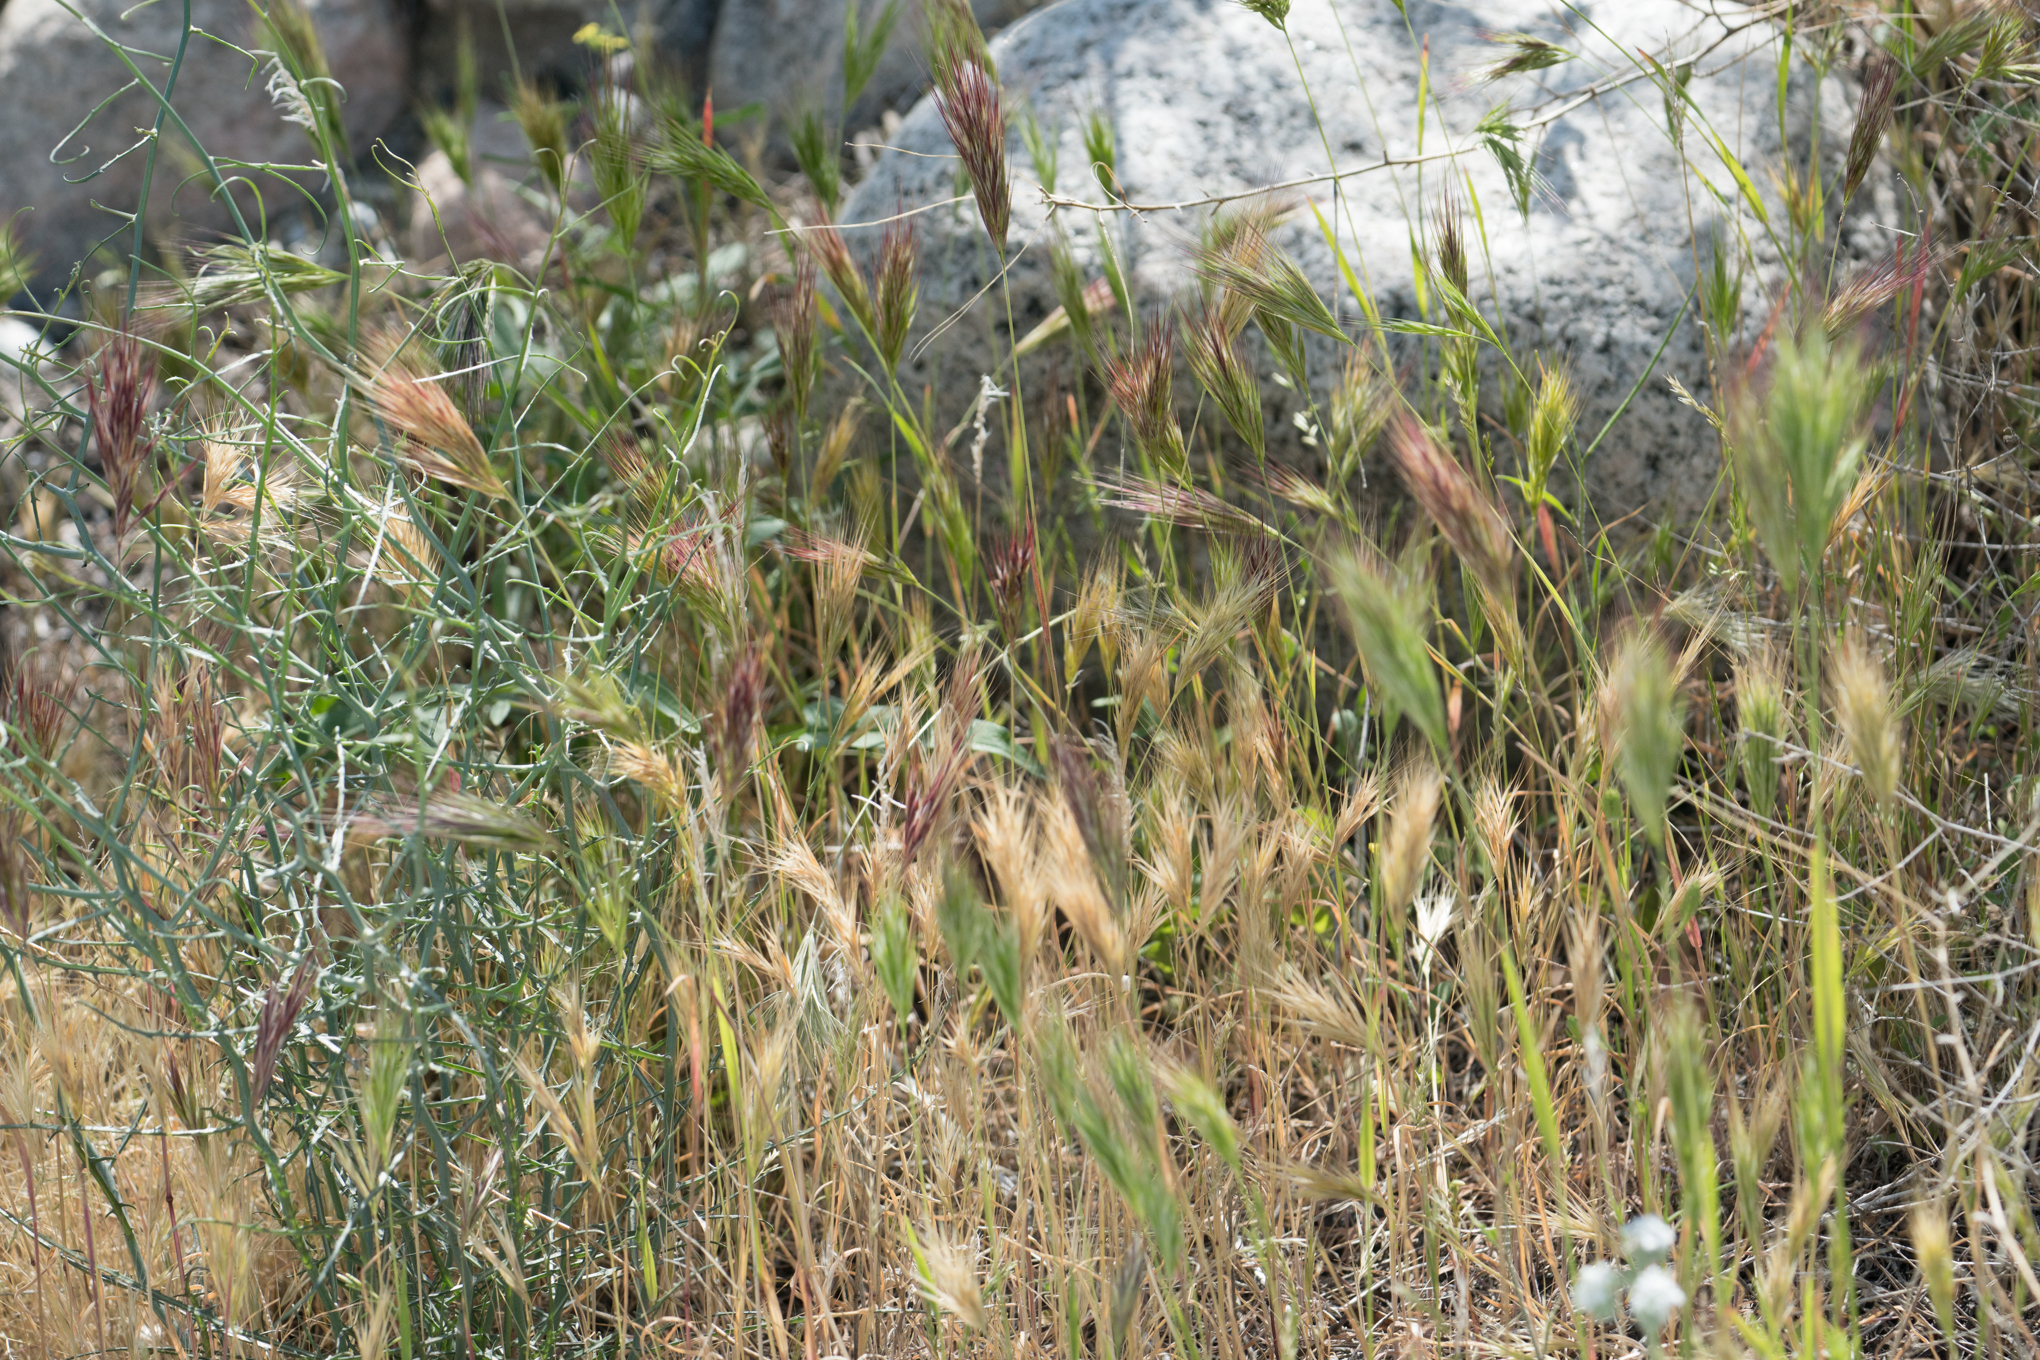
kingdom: Plantae
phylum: Tracheophyta
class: Liliopsida
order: Poales
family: Poaceae
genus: Bromus
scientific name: Bromus rubens
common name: Red brome
